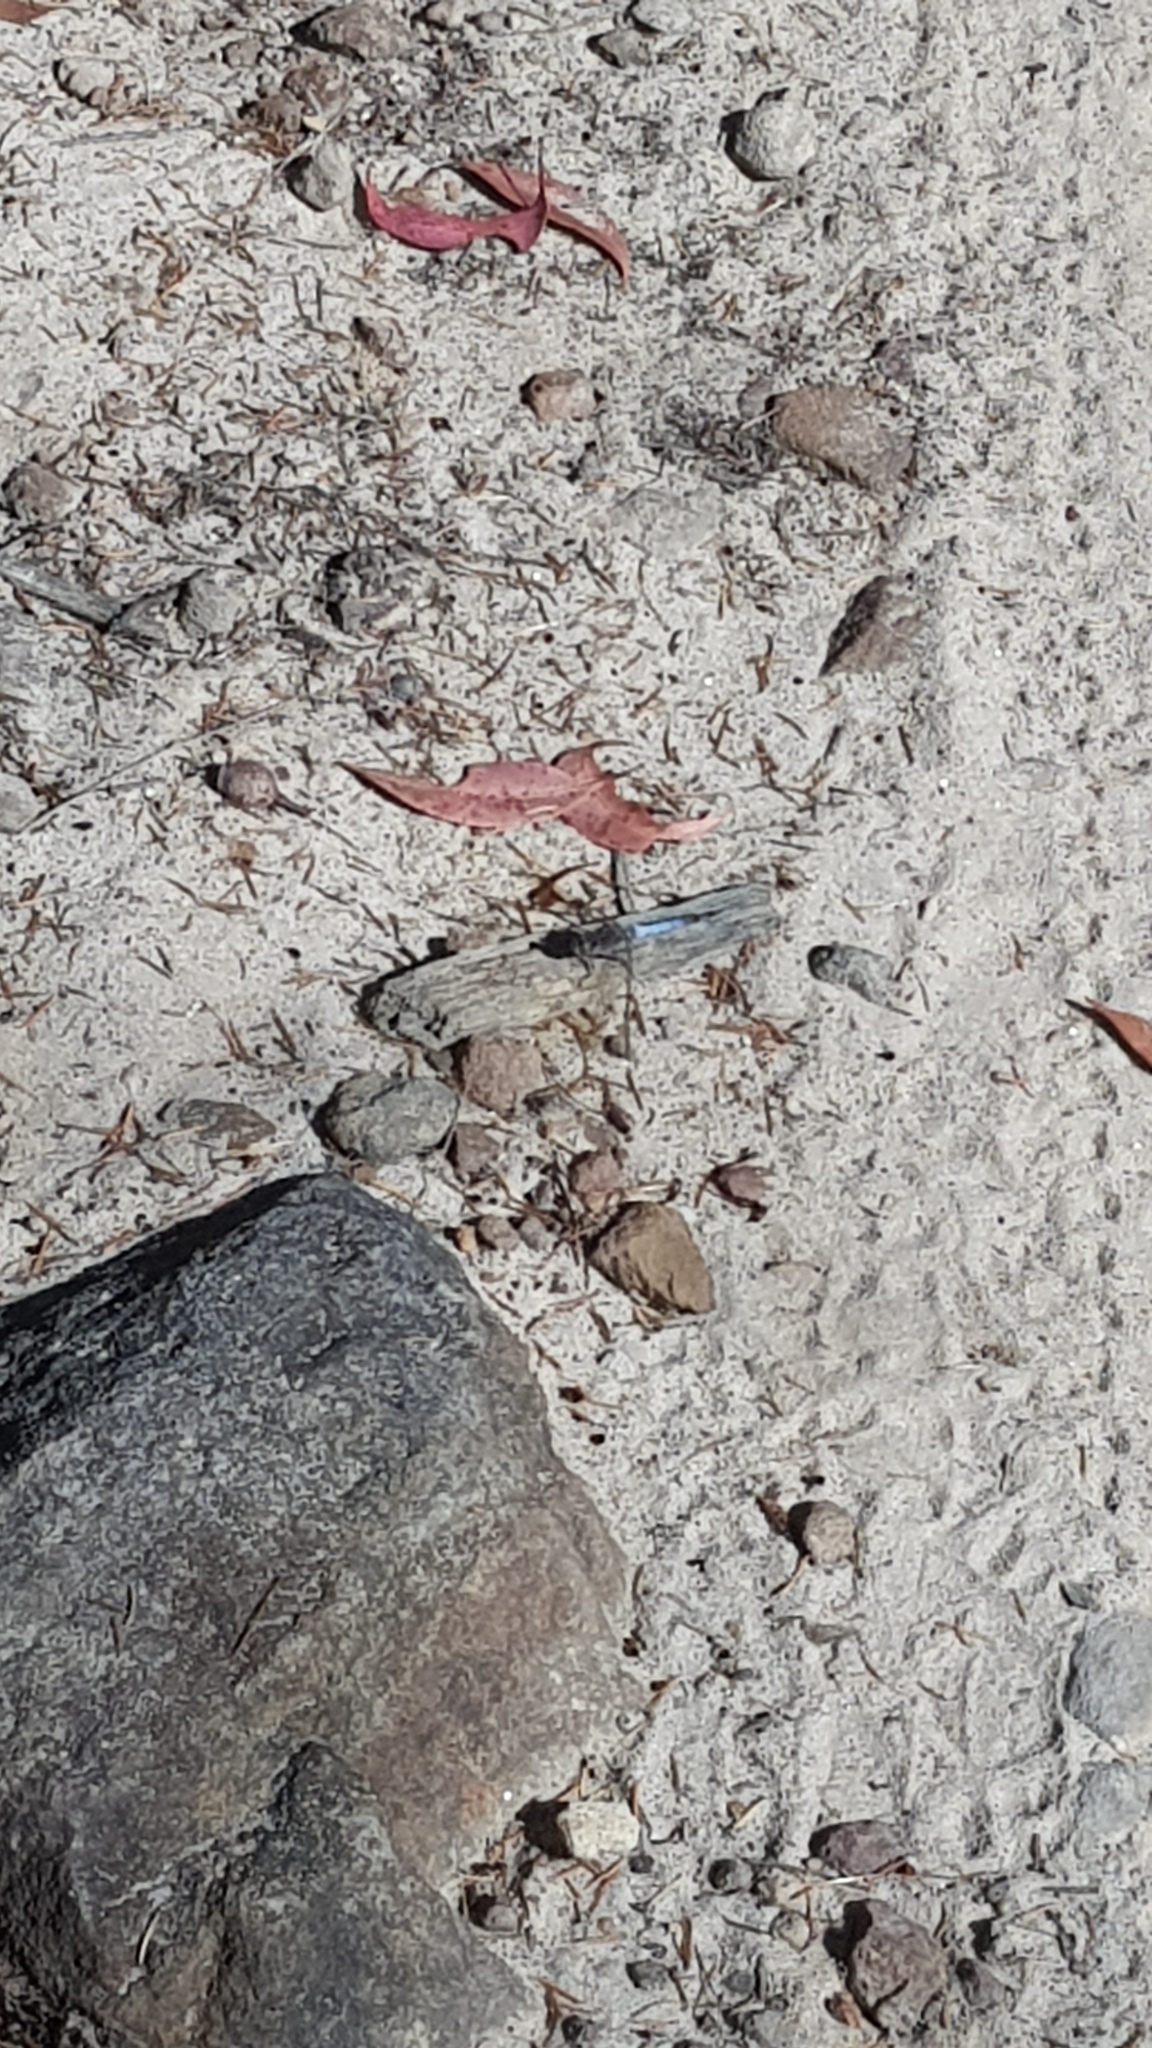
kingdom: Animalia
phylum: Arthropoda
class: Insecta
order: Odonata
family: Libellulidae
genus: Orthetrum
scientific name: Orthetrum caledonicum
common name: Blue skimmer
